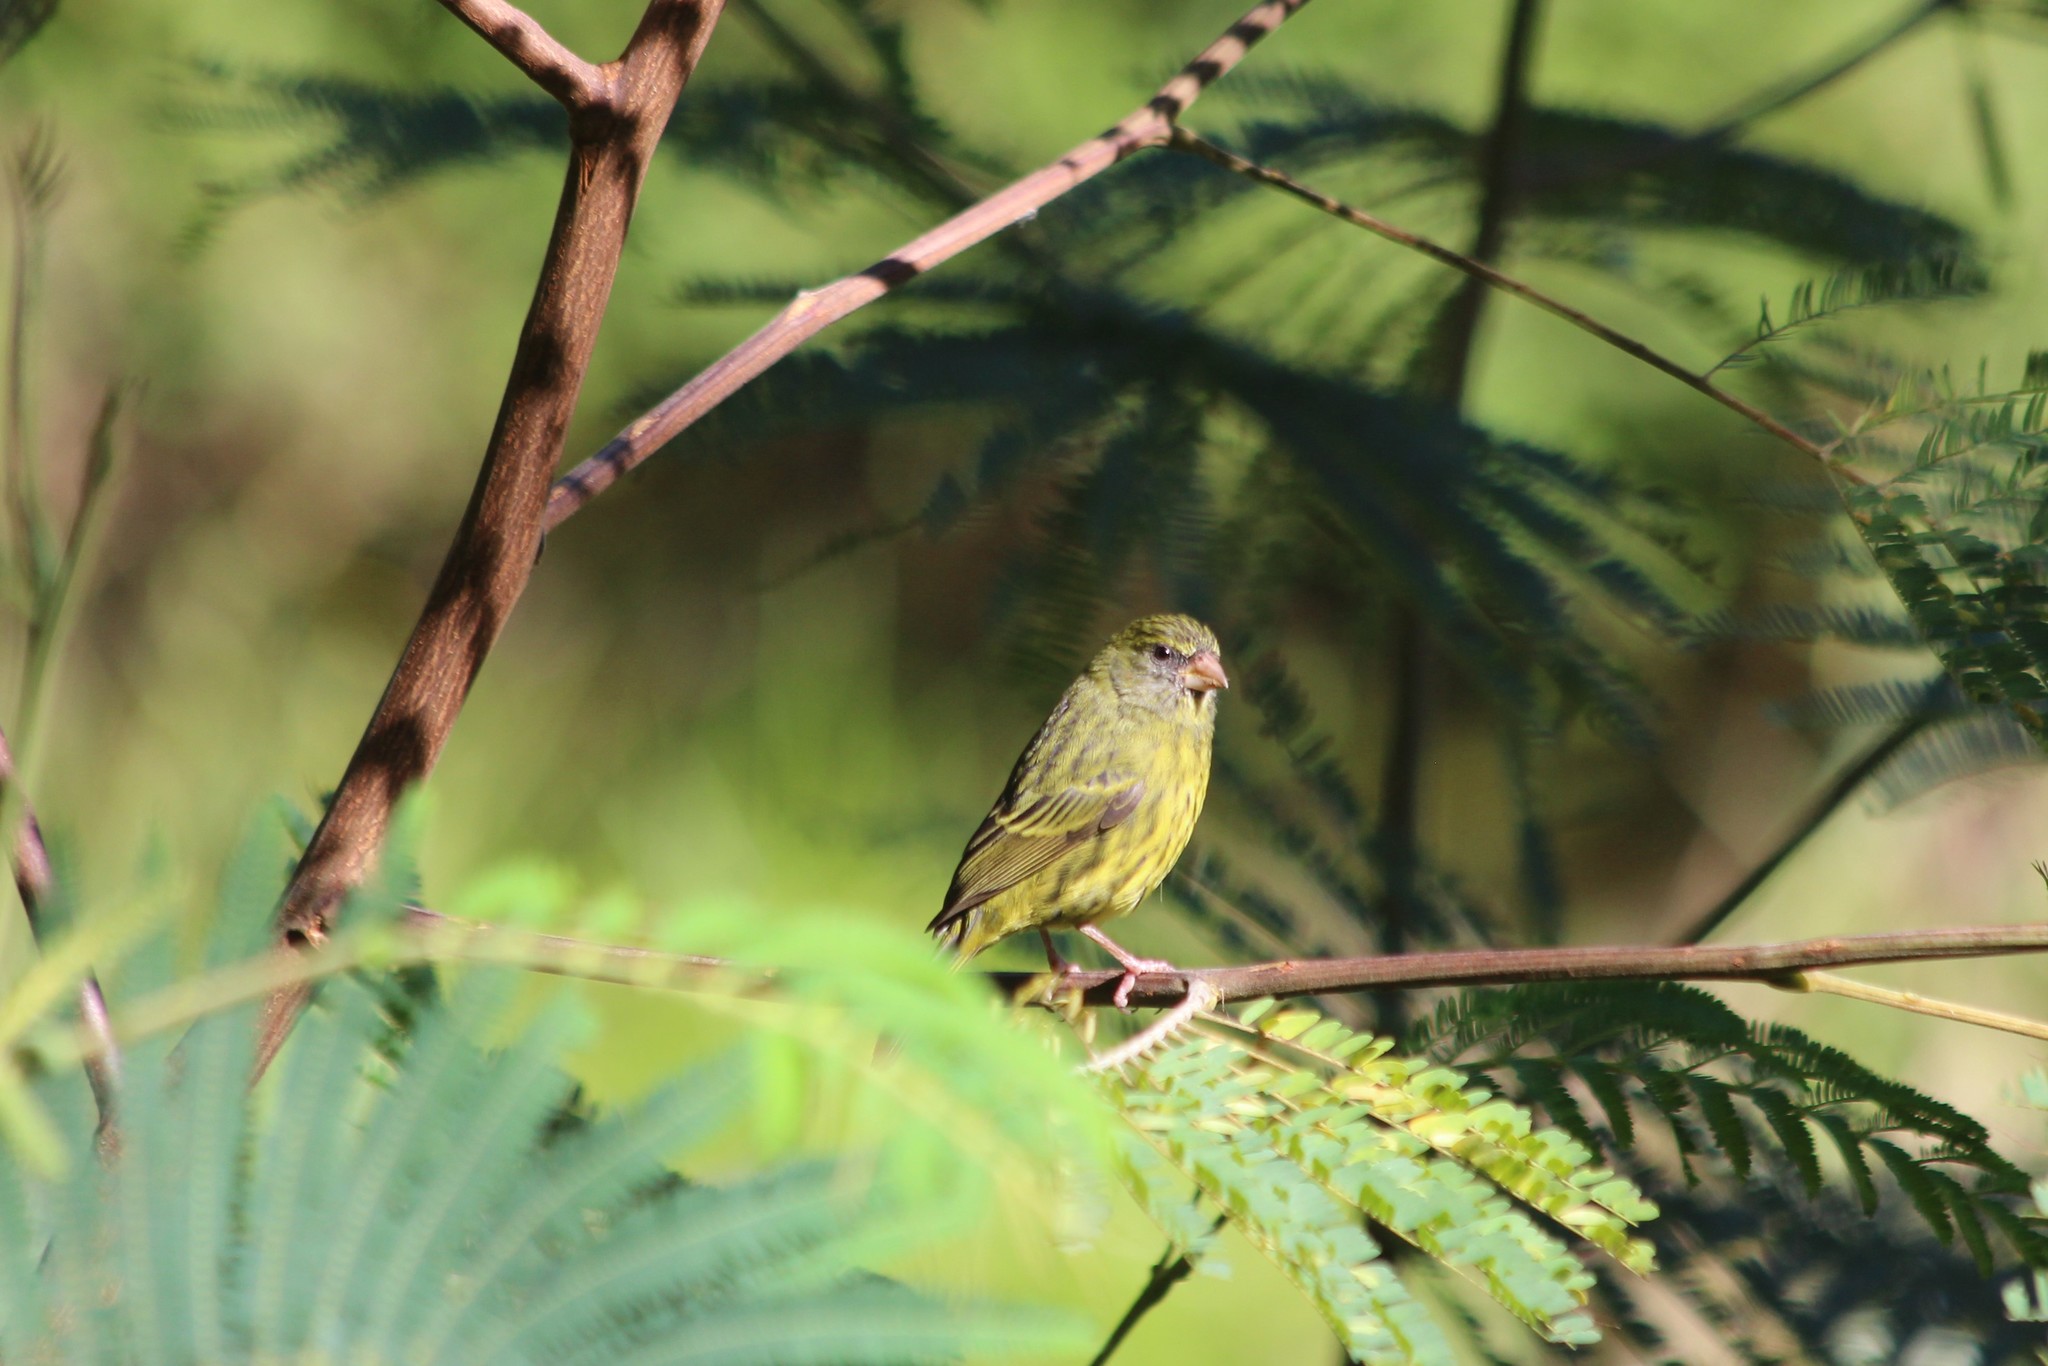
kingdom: Animalia
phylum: Chordata
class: Aves
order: Passeriformes
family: Fringillidae
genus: Crithagra
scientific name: Crithagra scotops
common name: Forest canary
